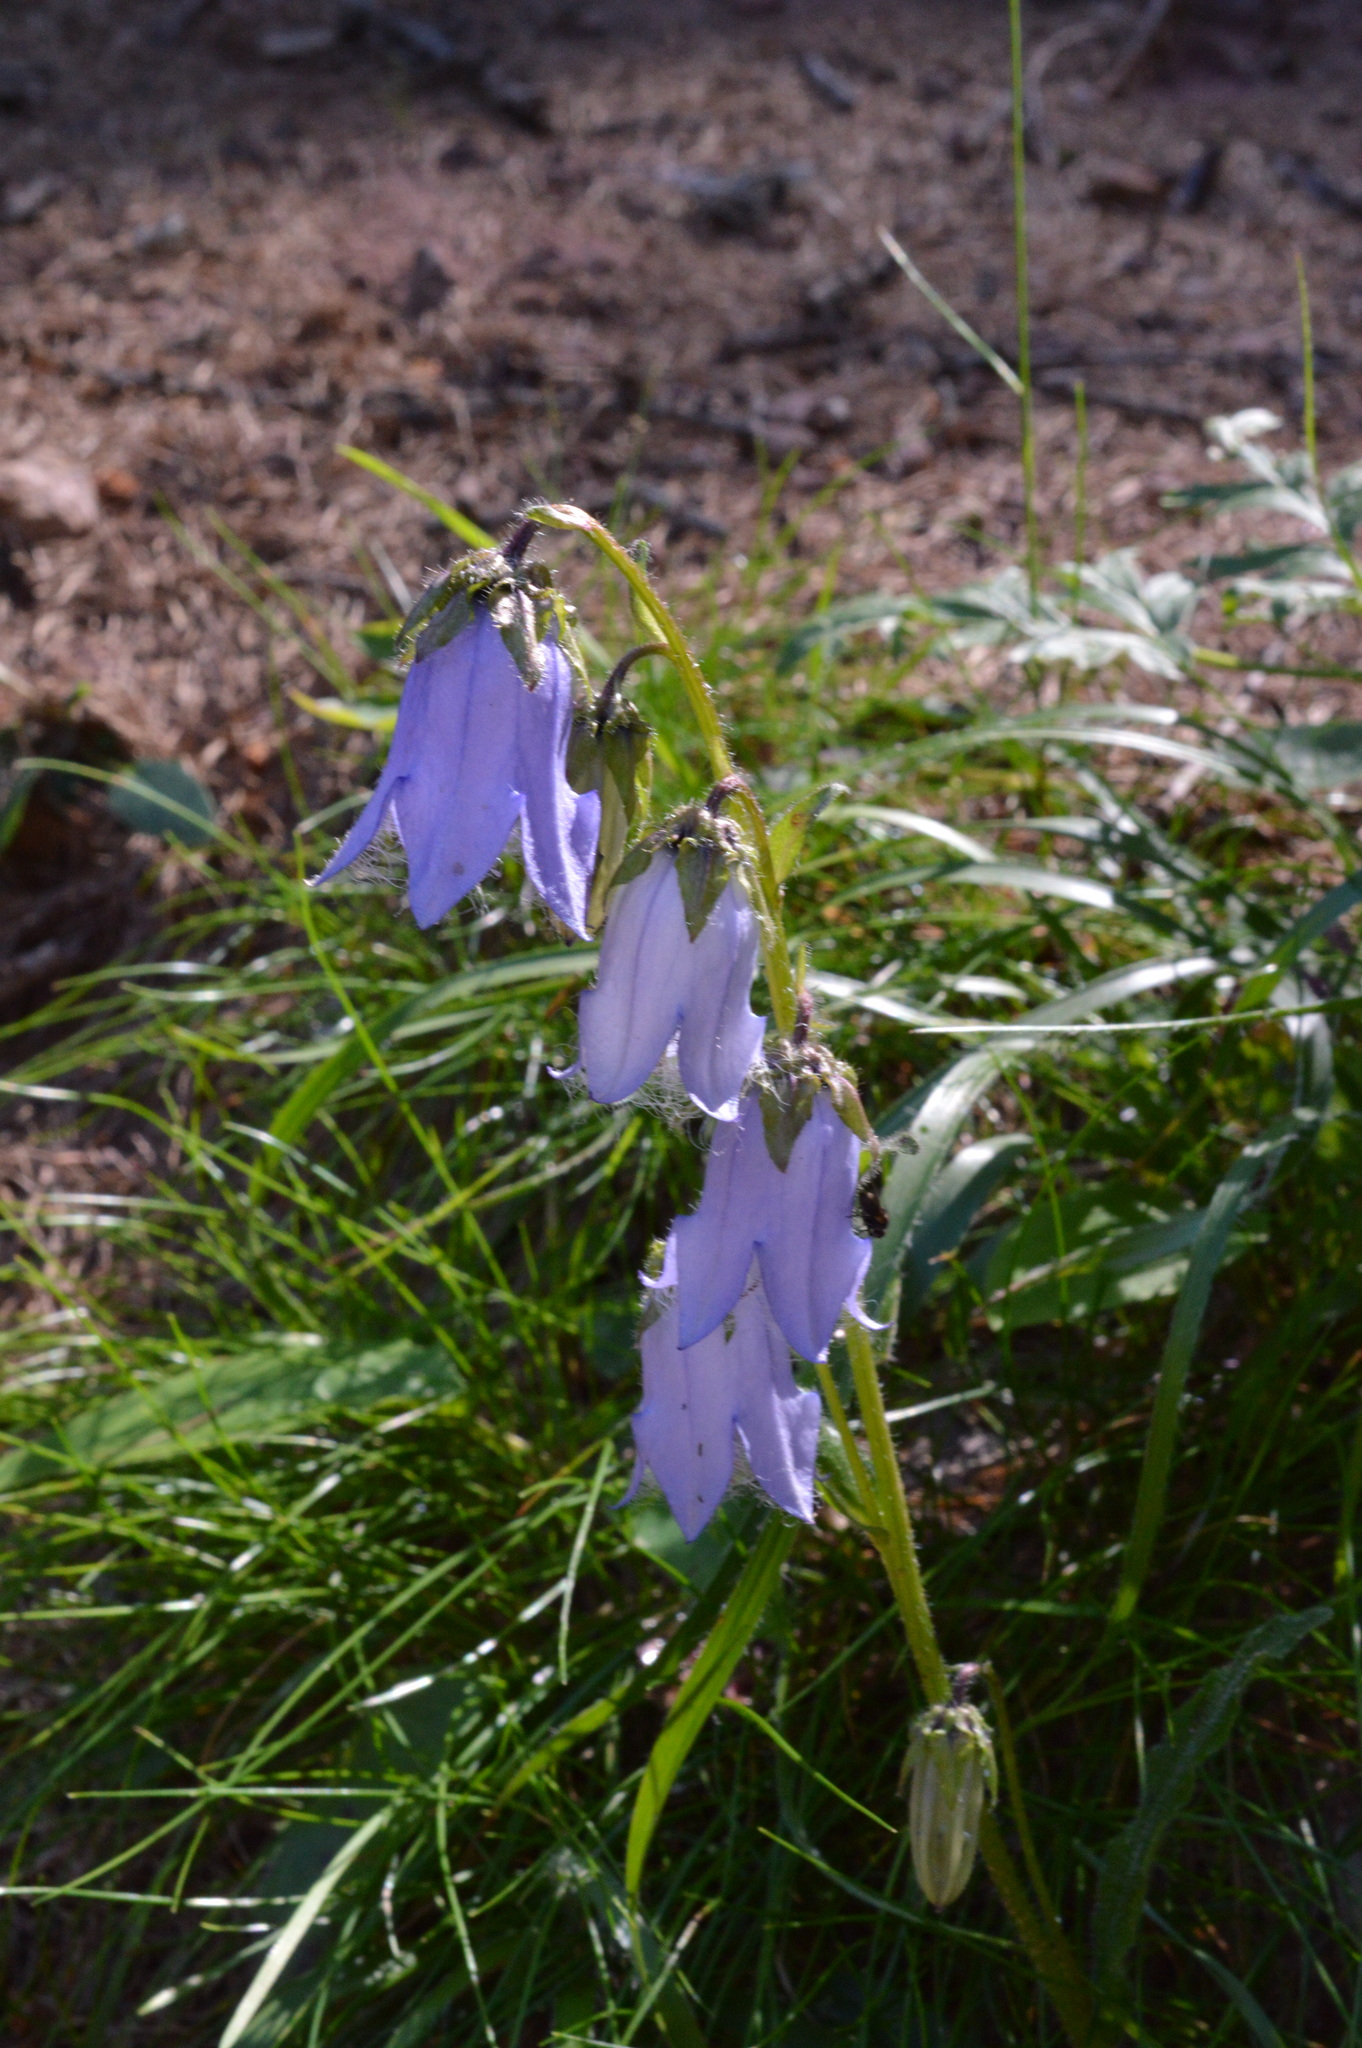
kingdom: Plantae
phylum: Tracheophyta
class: Magnoliopsida
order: Asterales
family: Campanulaceae
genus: Campanula
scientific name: Campanula barbata
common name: Bearded bellflower
